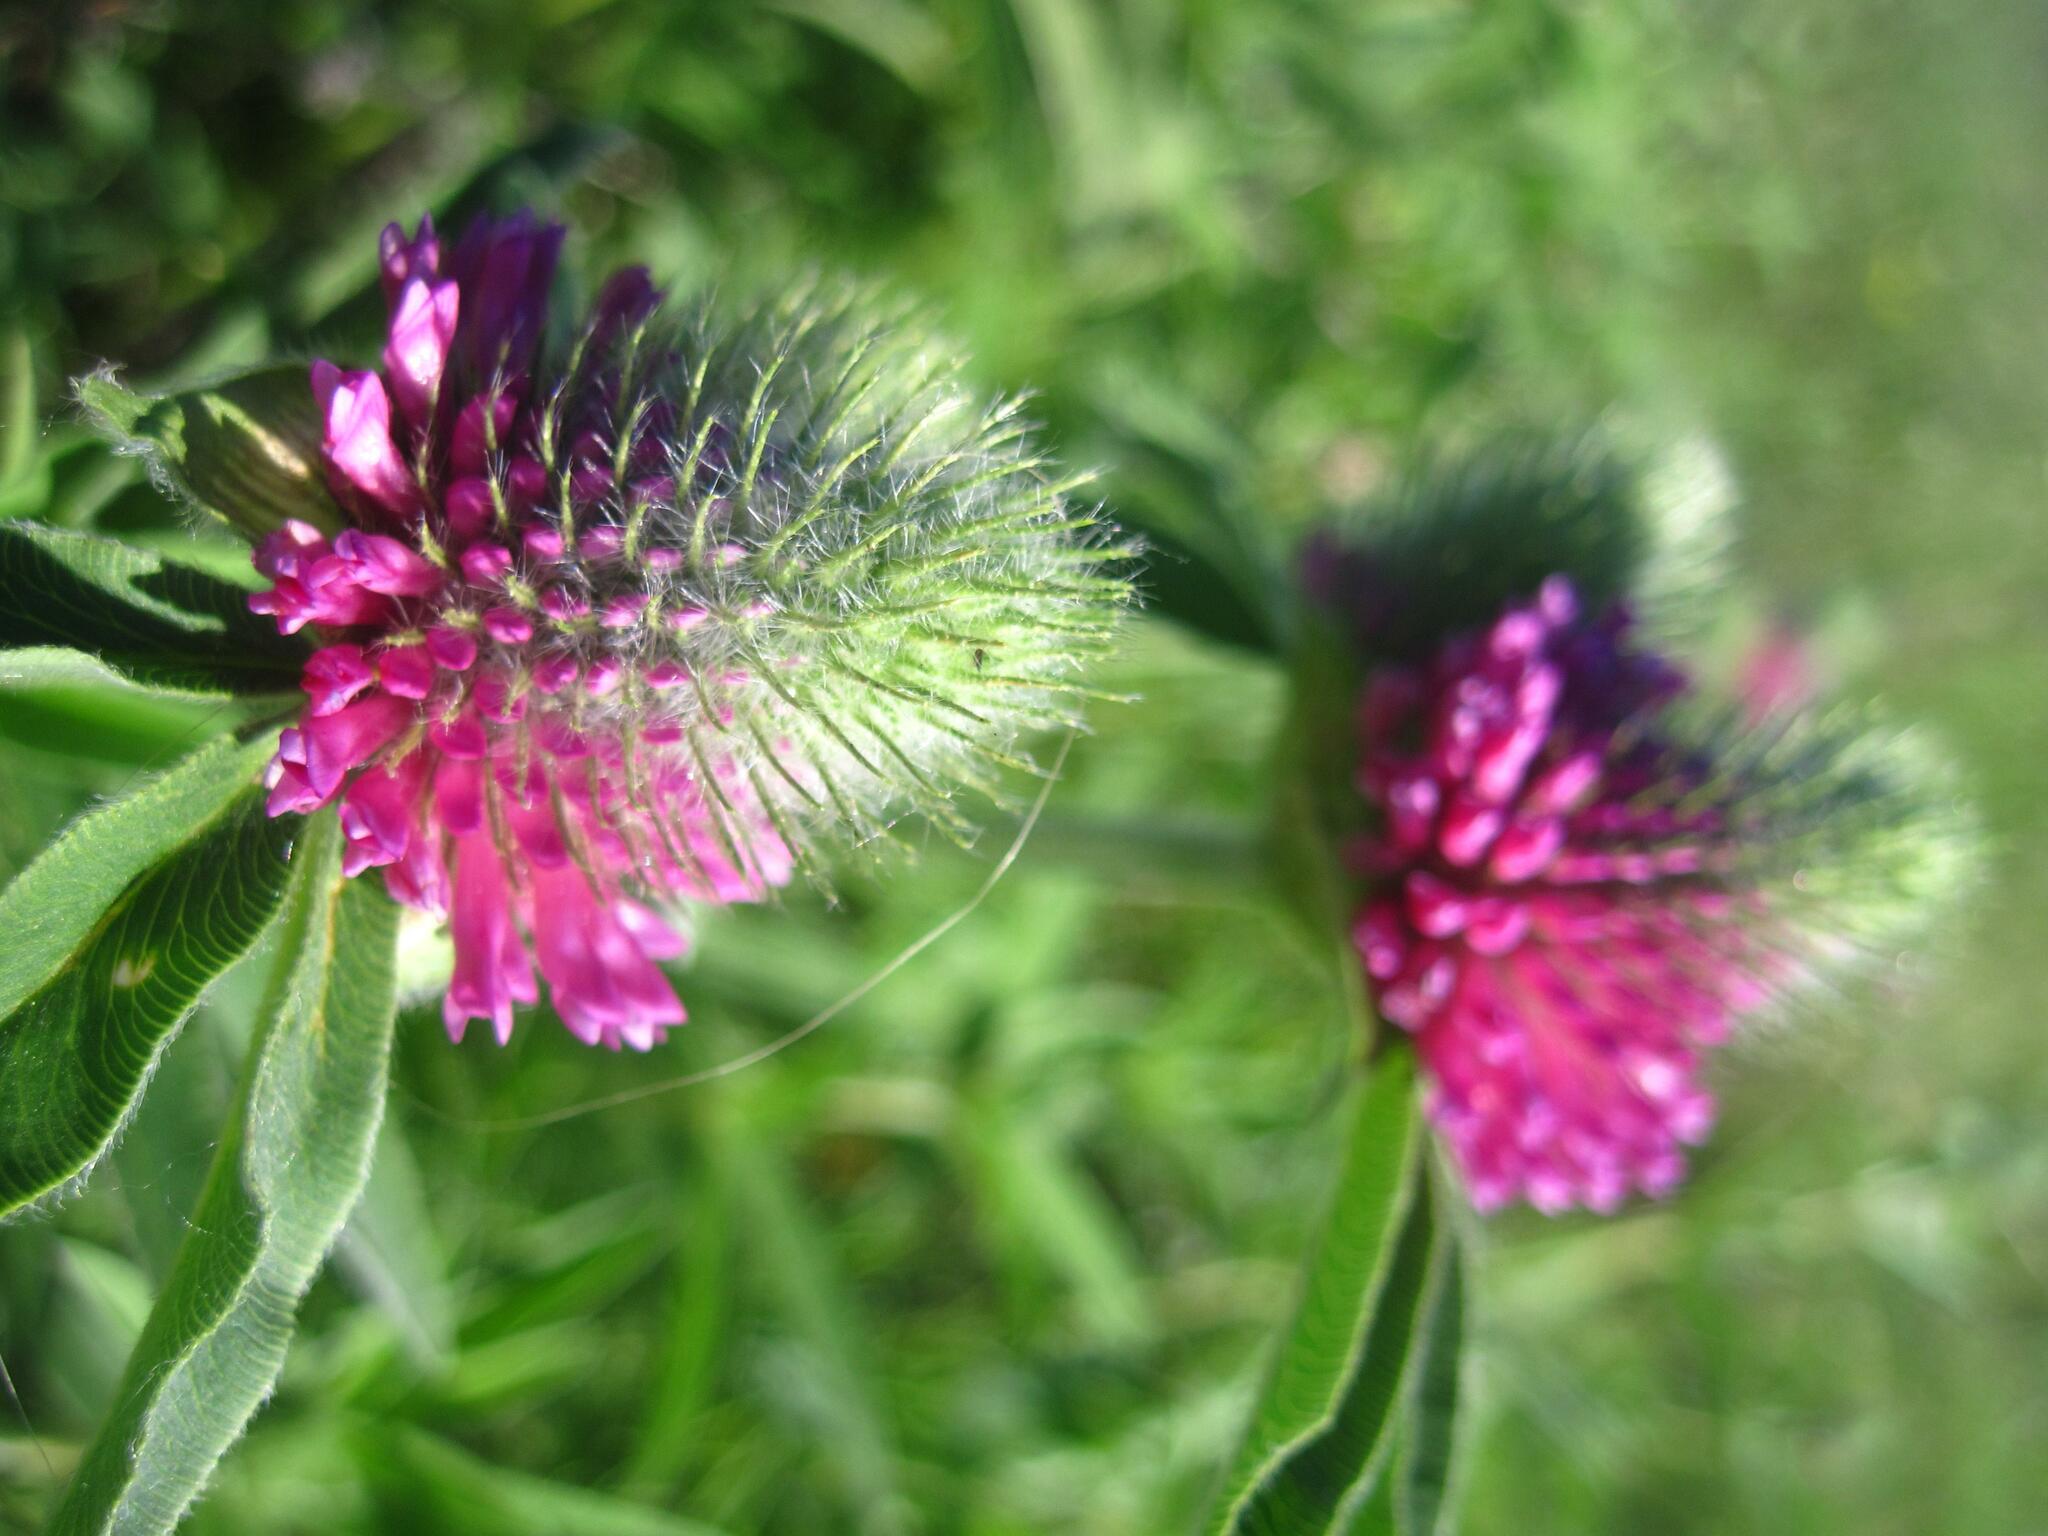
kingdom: Plantae
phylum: Tracheophyta
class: Magnoliopsida
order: Fabales
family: Fabaceae
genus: Trifolium
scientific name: Trifolium alpestre
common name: Owl-head clover
